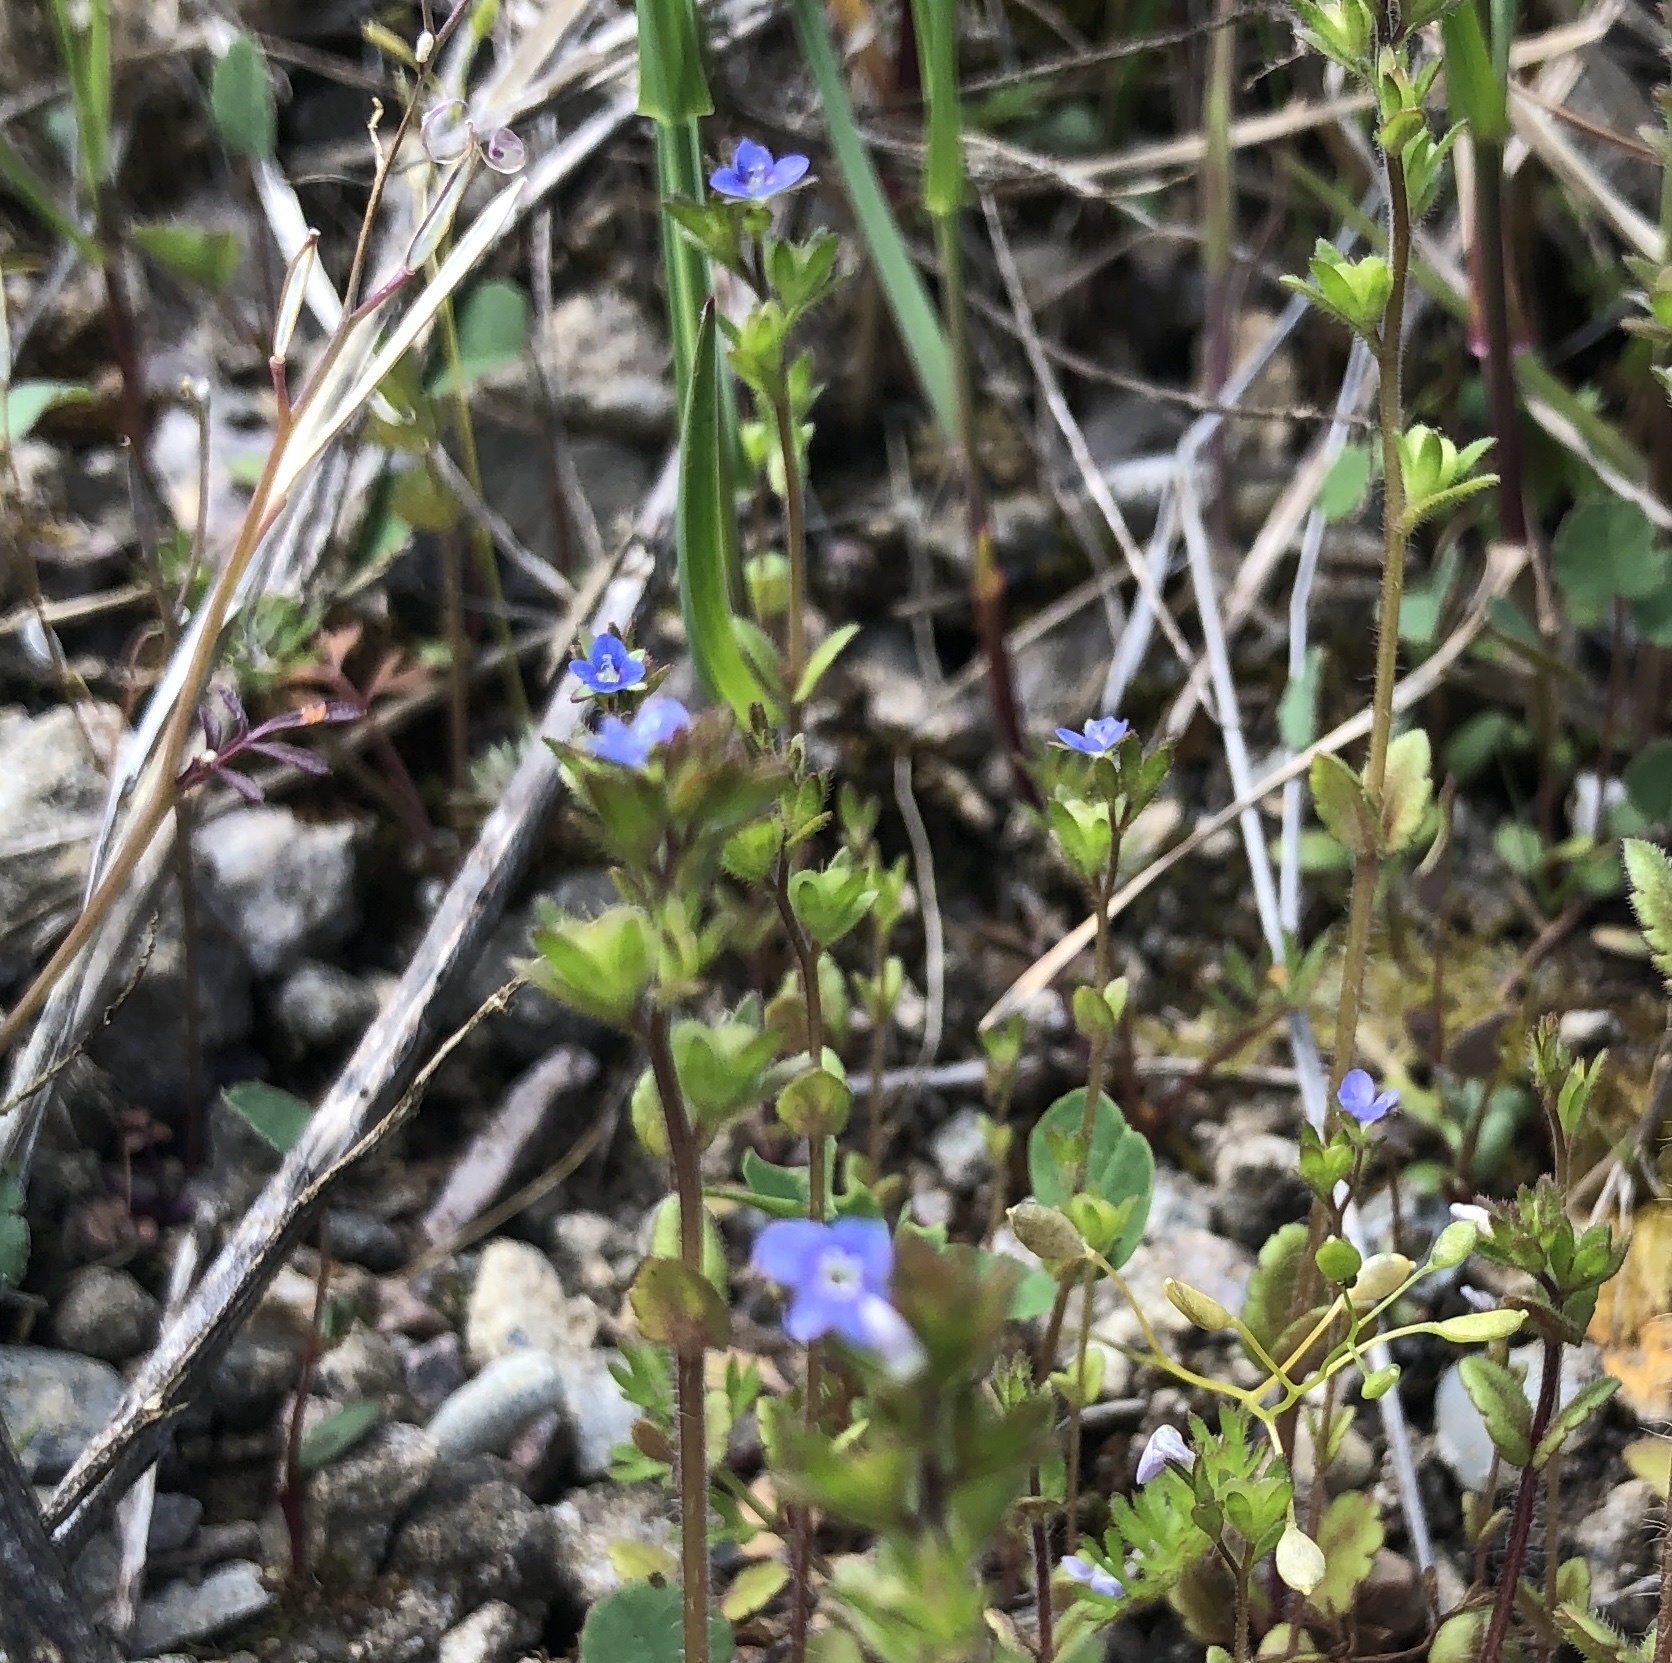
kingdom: Plantae
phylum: Tracheophyta
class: Magnoliopsida
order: Lamiales
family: Plantaginaceae
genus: Veronica
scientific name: Veronica arvensis
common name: Corn speedwell
